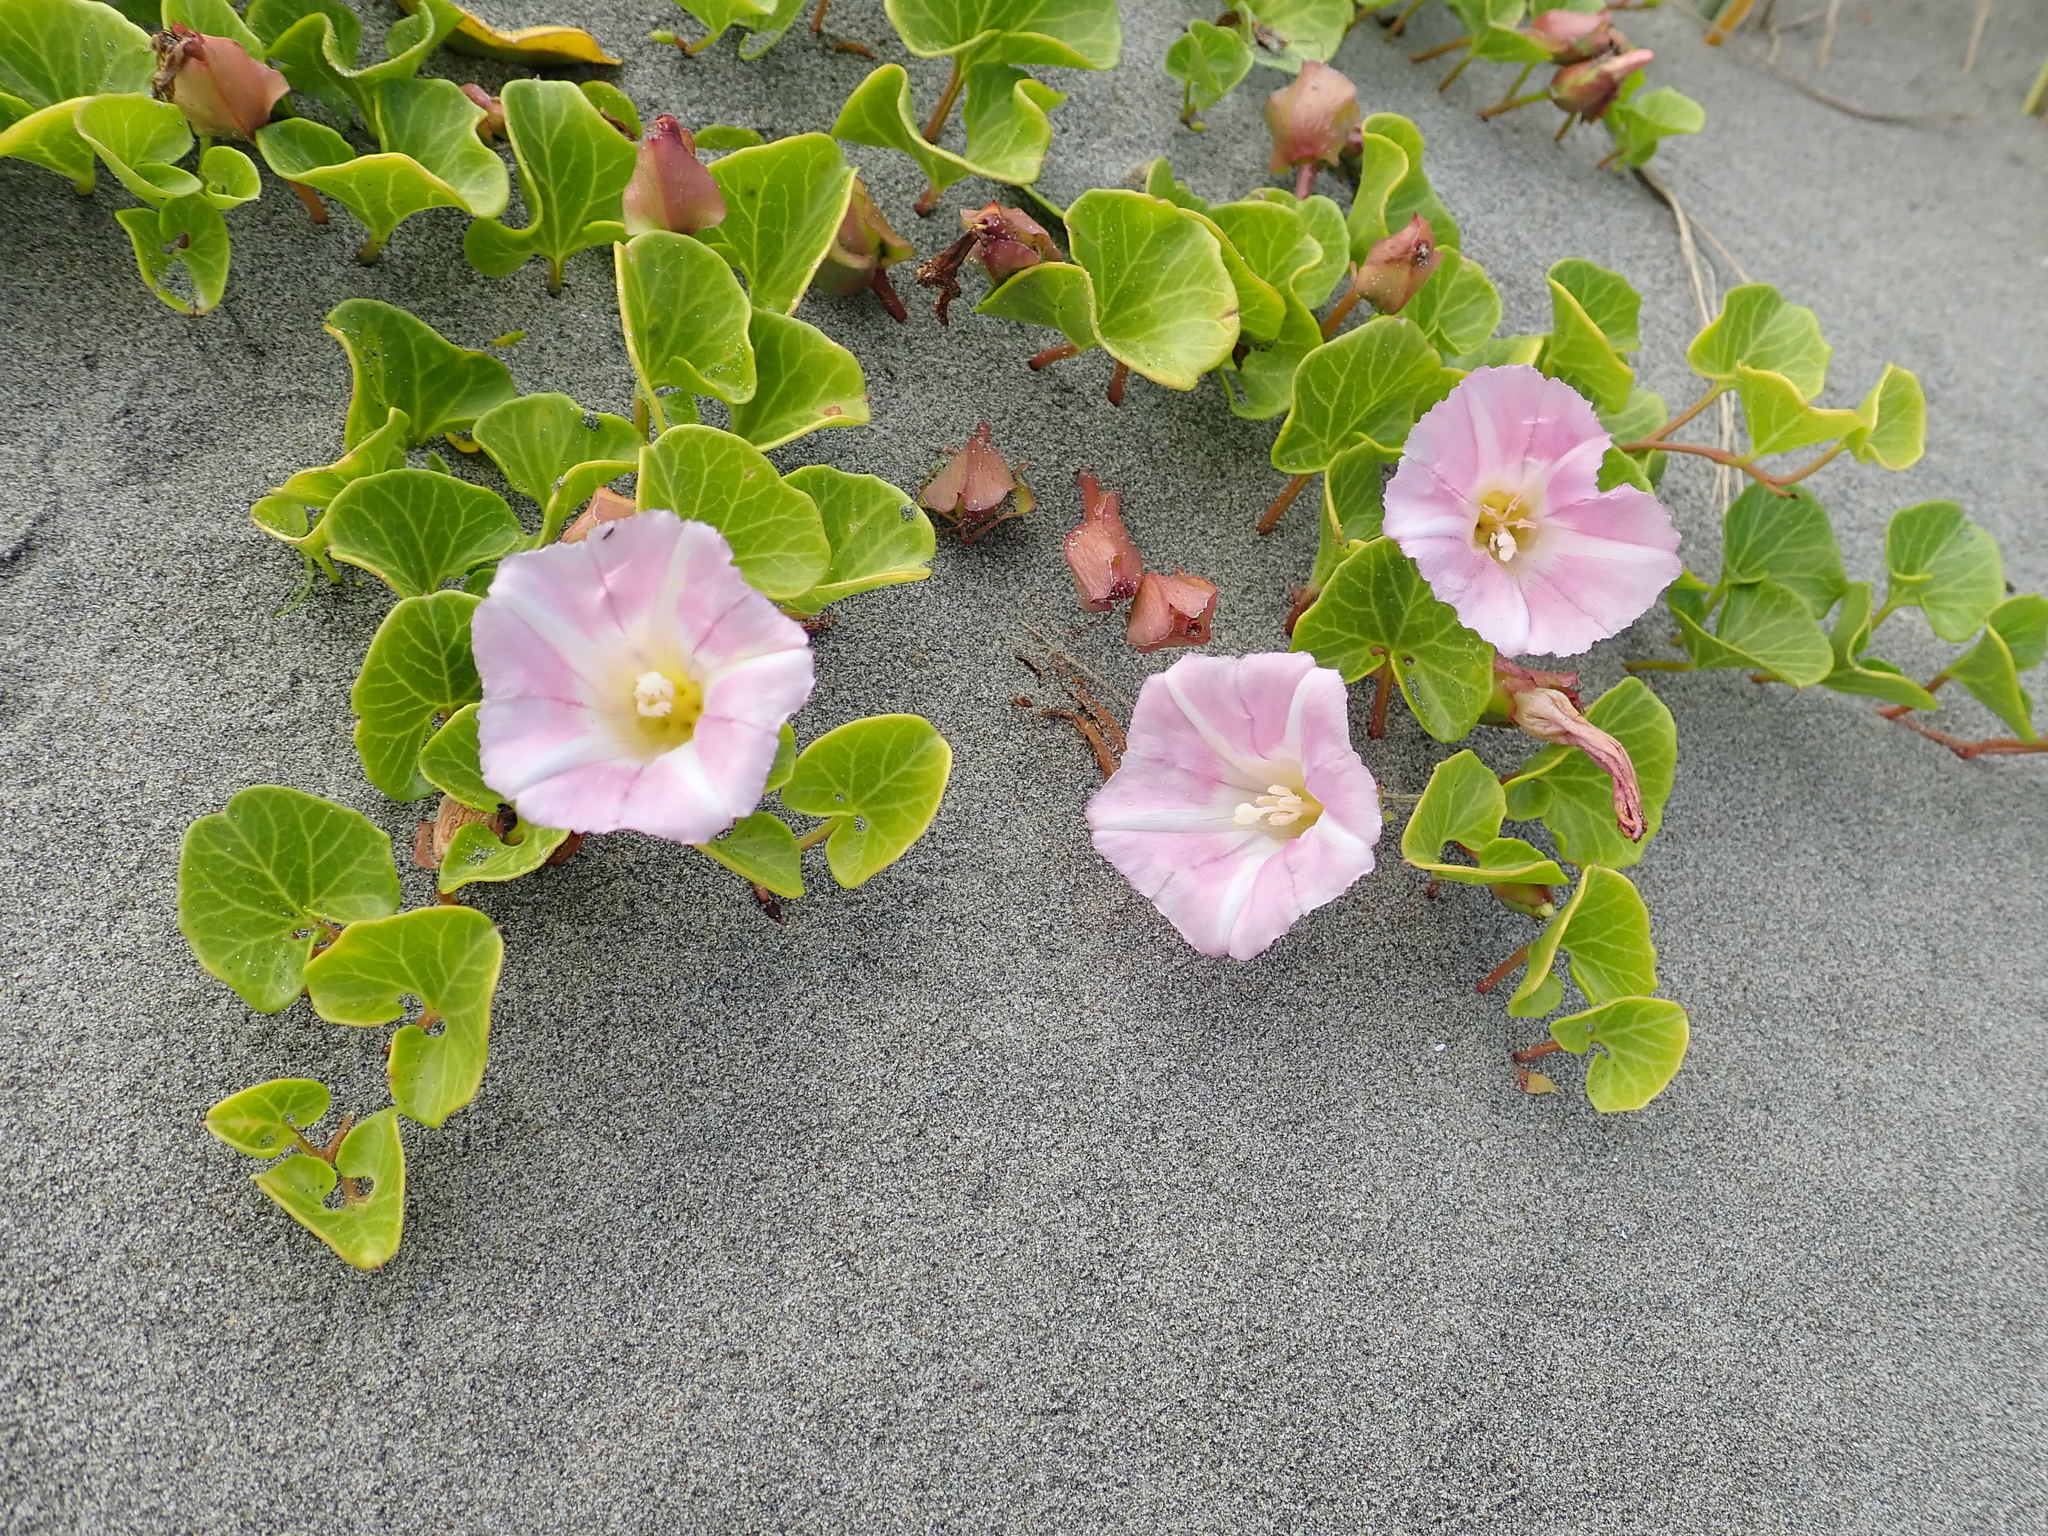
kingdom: Plantae
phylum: Tracheophyta
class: Magnoliopsida
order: Solanales
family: Convolvulaceae
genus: Calystegia
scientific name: Calystegia soldanella
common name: Sea bindweed
